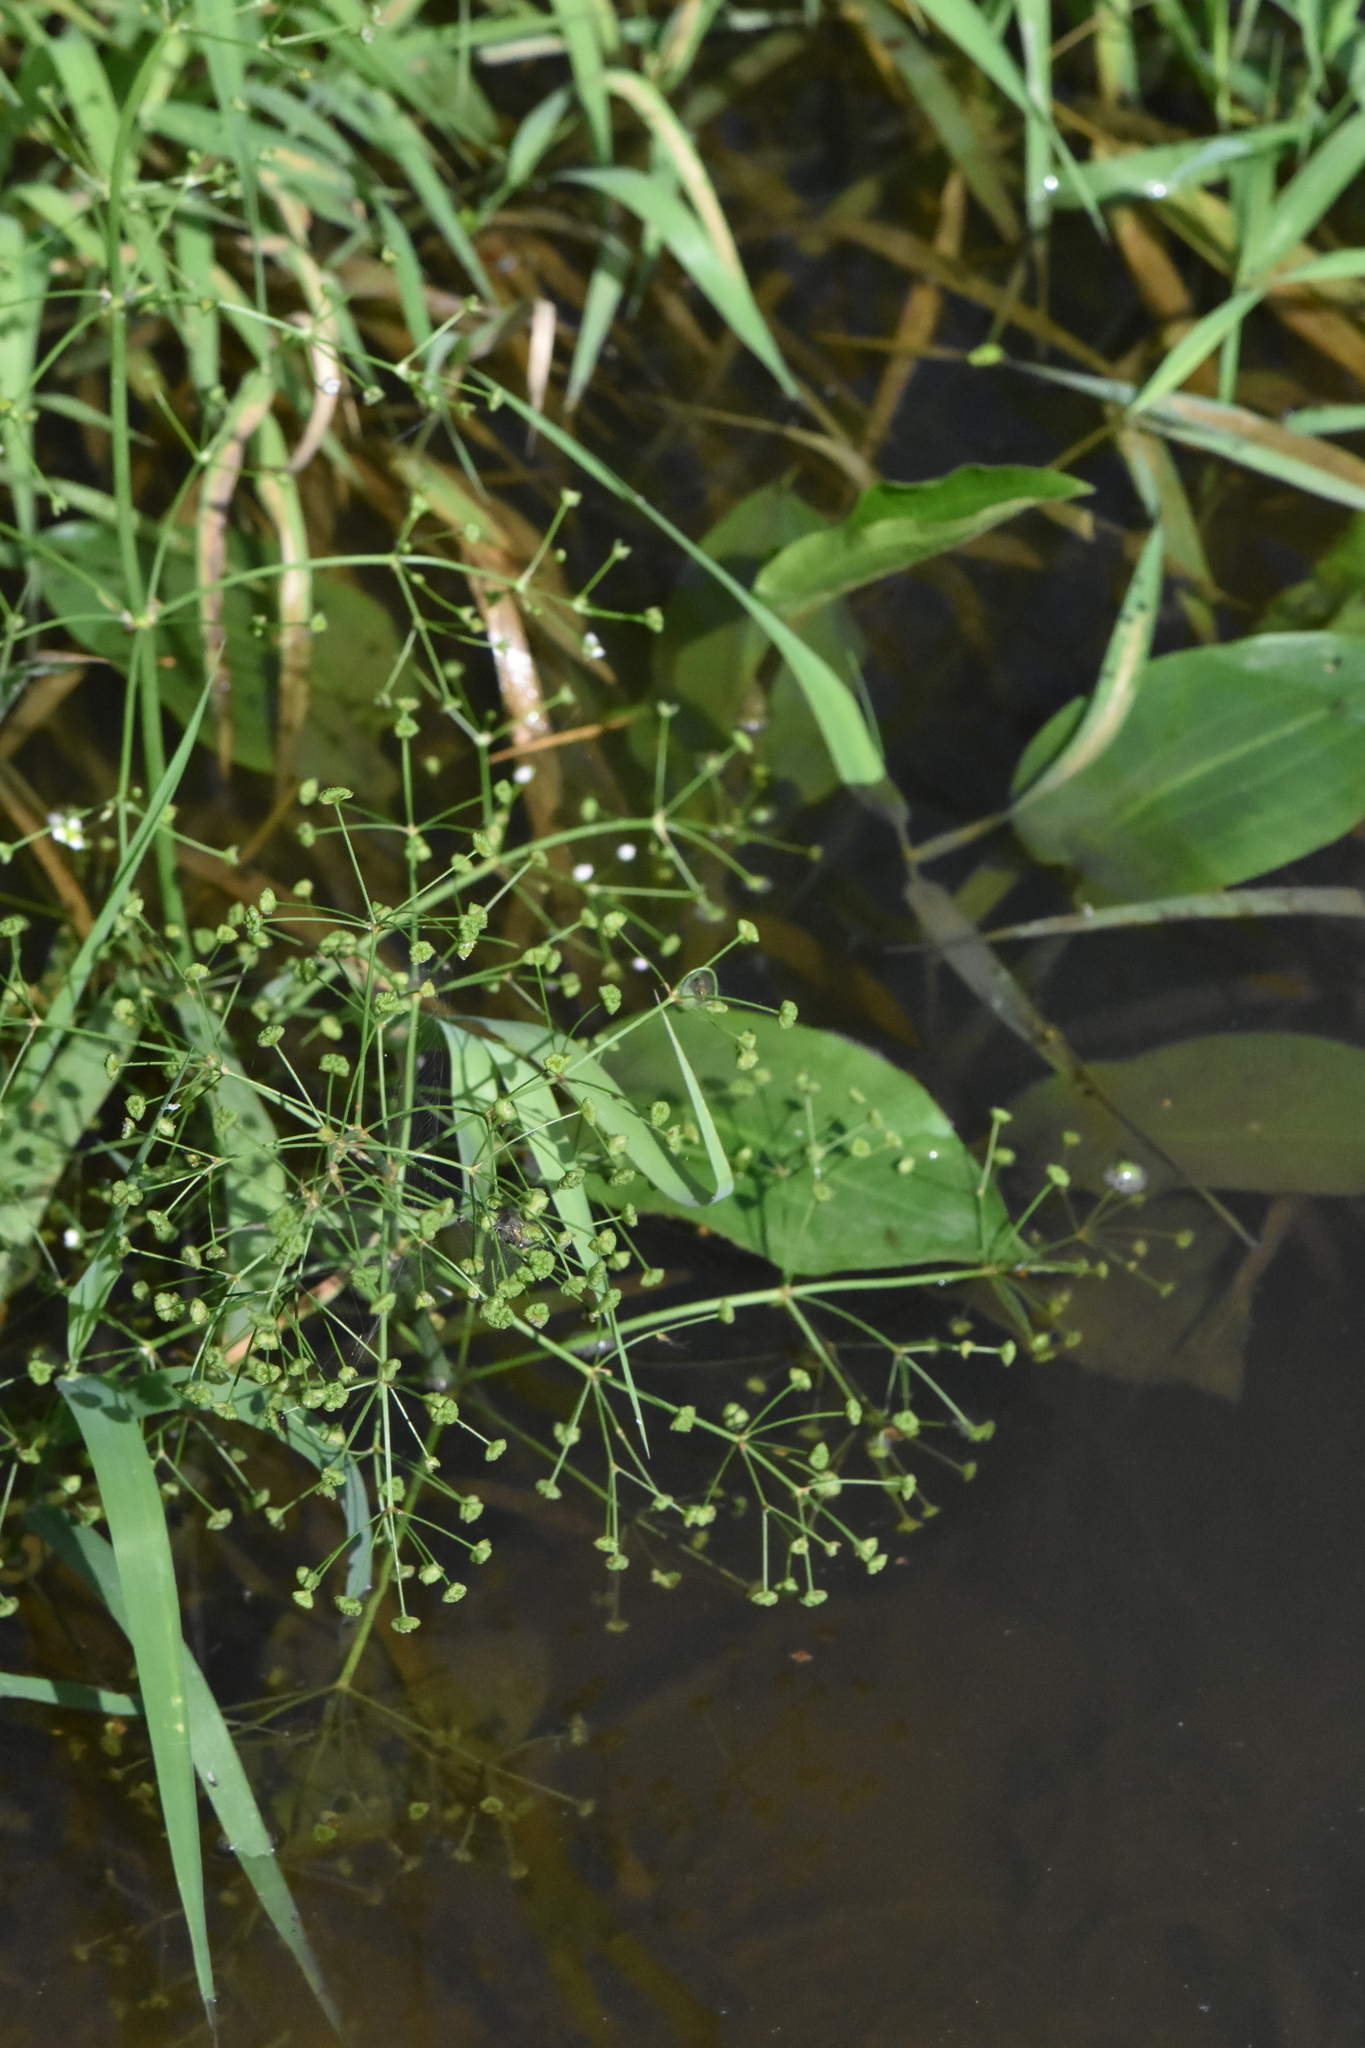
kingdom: Plantae
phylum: Tracheophyta
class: Liliopsida
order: Alismatales
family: Alismataceae
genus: Alisma
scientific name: Alisma plantago-aquatica
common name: Water-plantain
